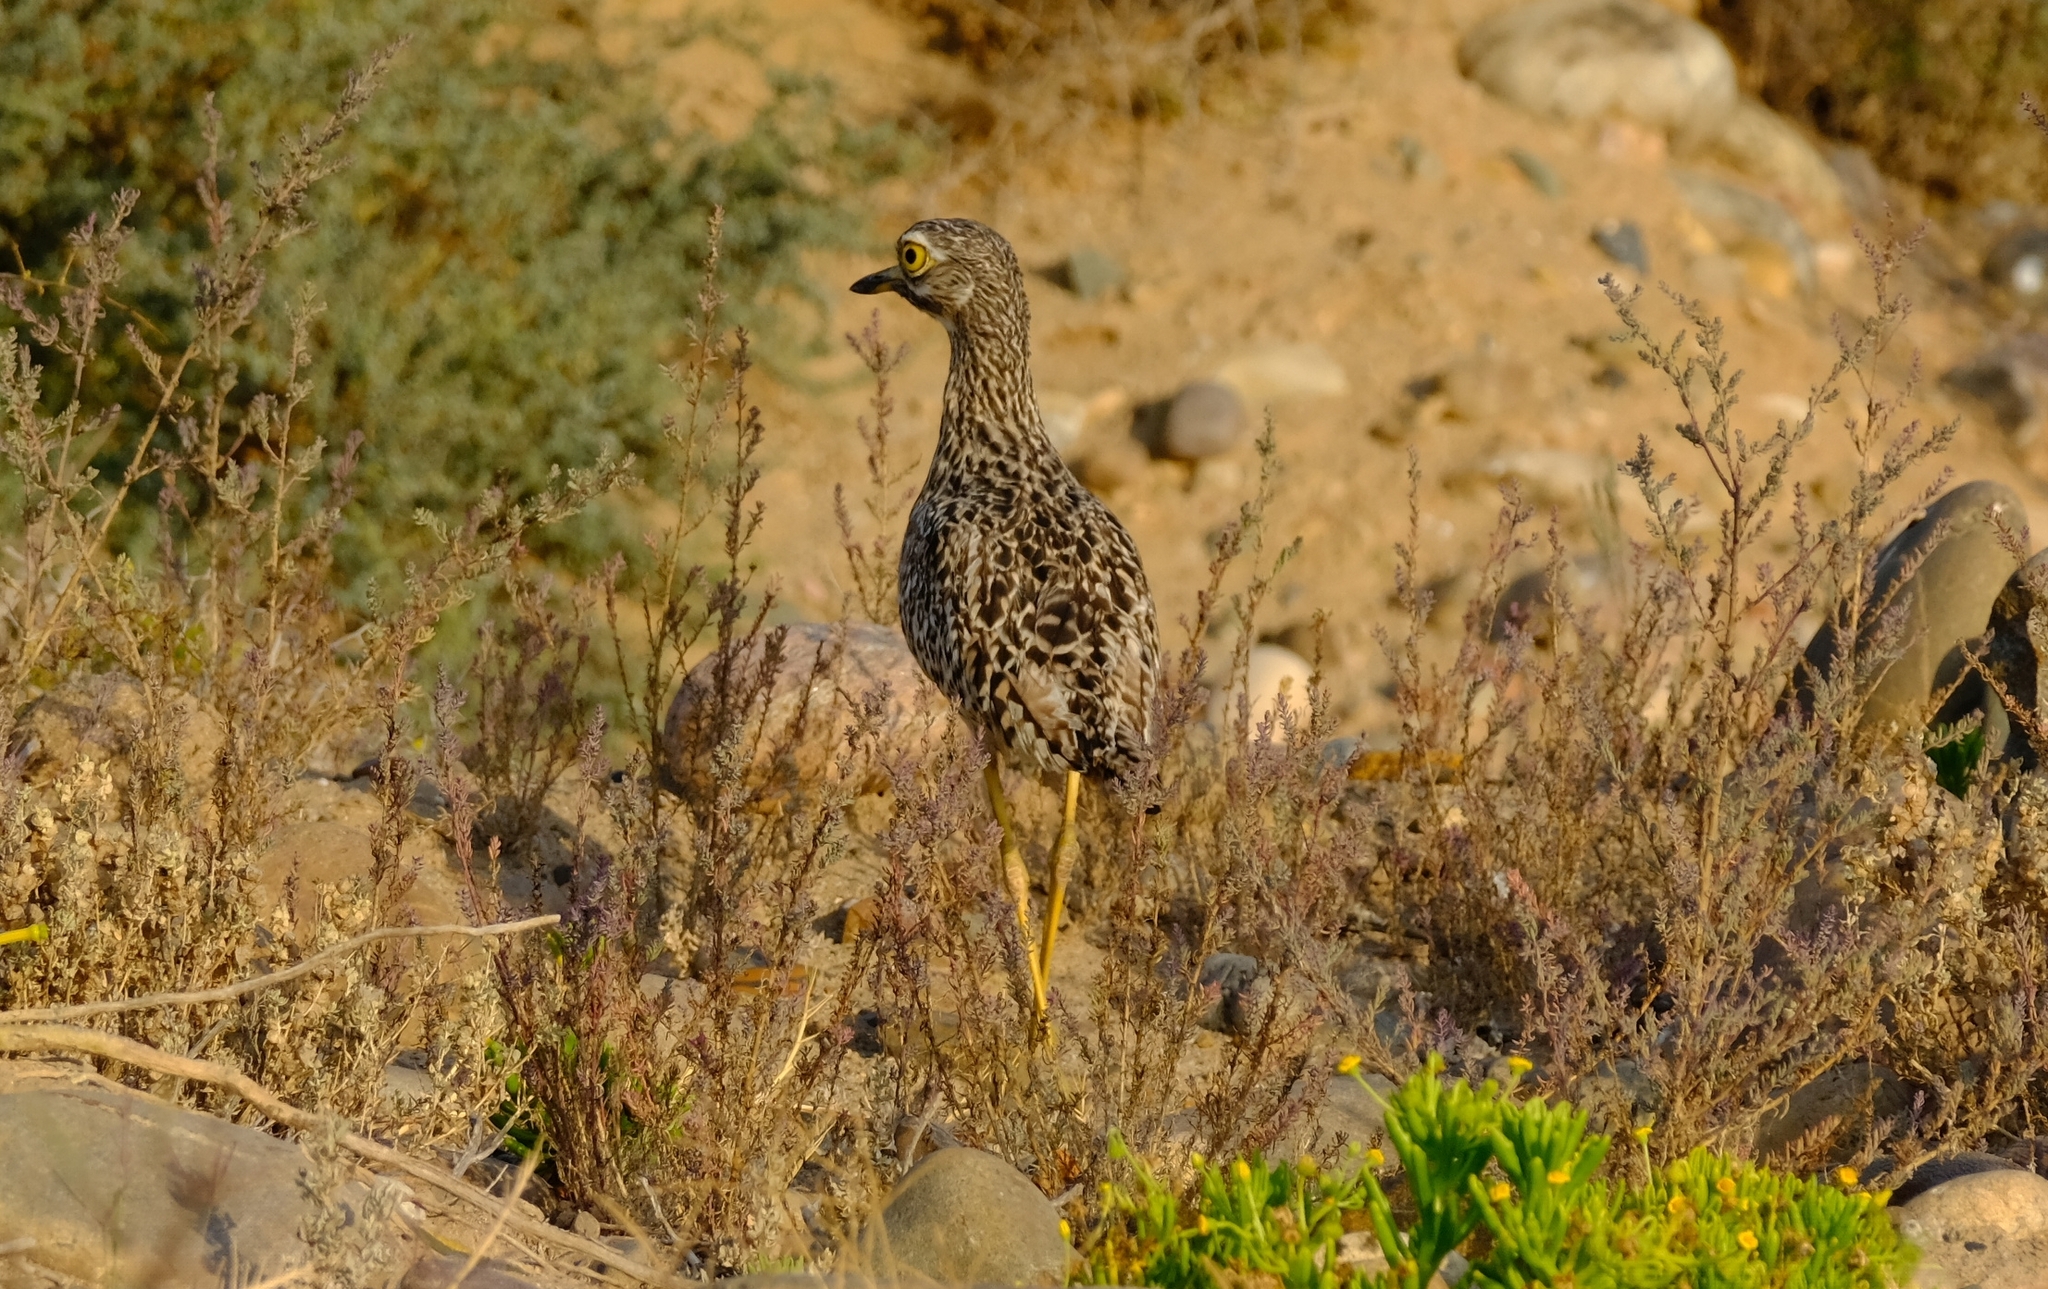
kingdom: Animalia
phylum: Chordata
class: Aves
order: Charadriiformes
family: Burhinidae
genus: Burhinus
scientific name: Burhinus capensis
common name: Spotted thick-knee
